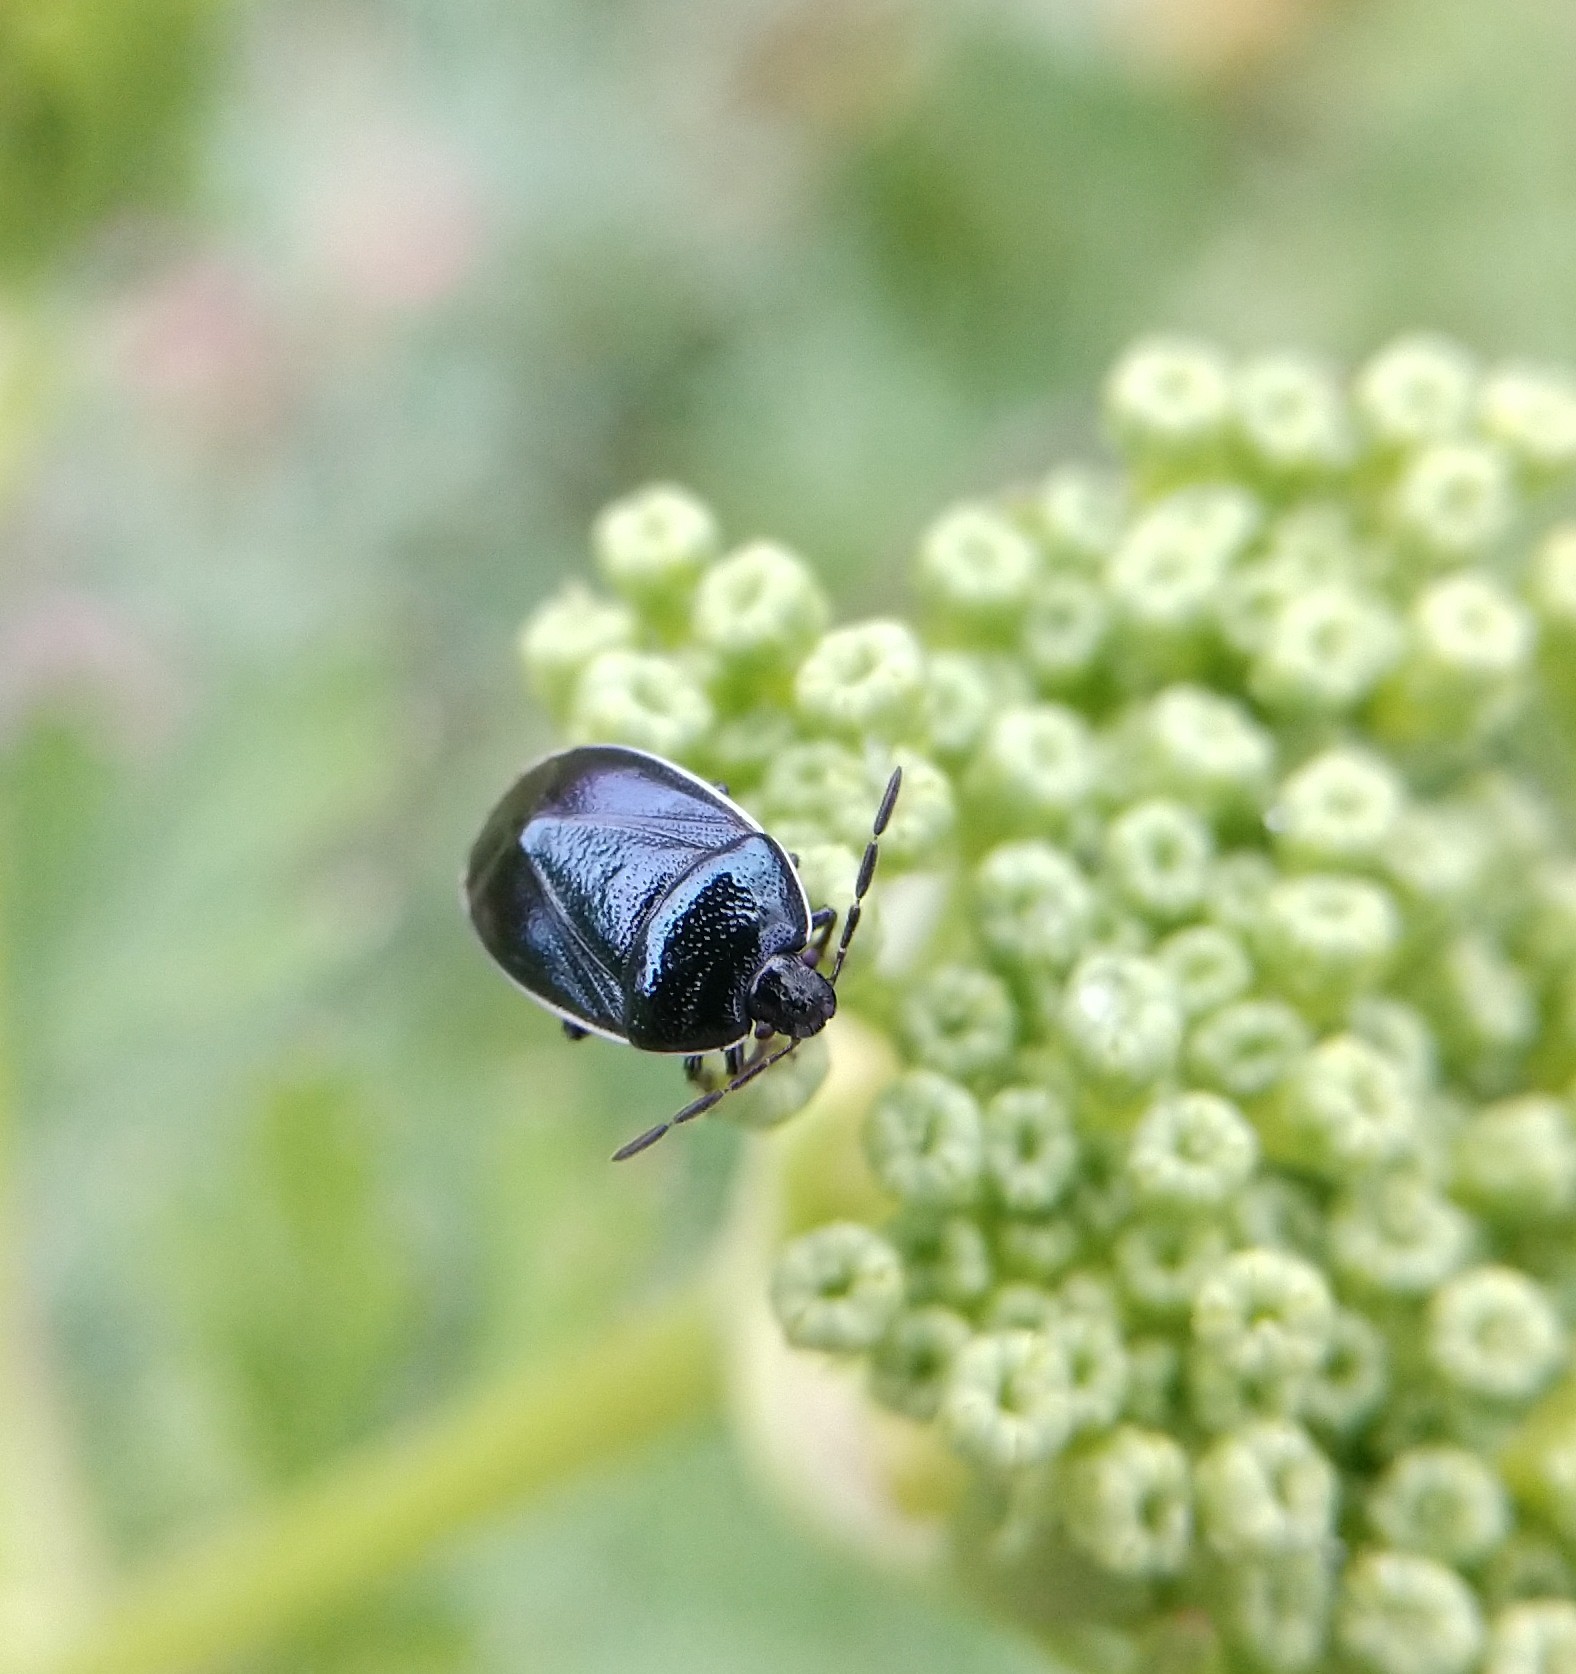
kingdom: Animalia
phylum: Arthropoda
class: Insecta
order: Hemiptera
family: Cydnidae
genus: Sehirus
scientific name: Sehirus cinctus
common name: White-margined burrower bug
